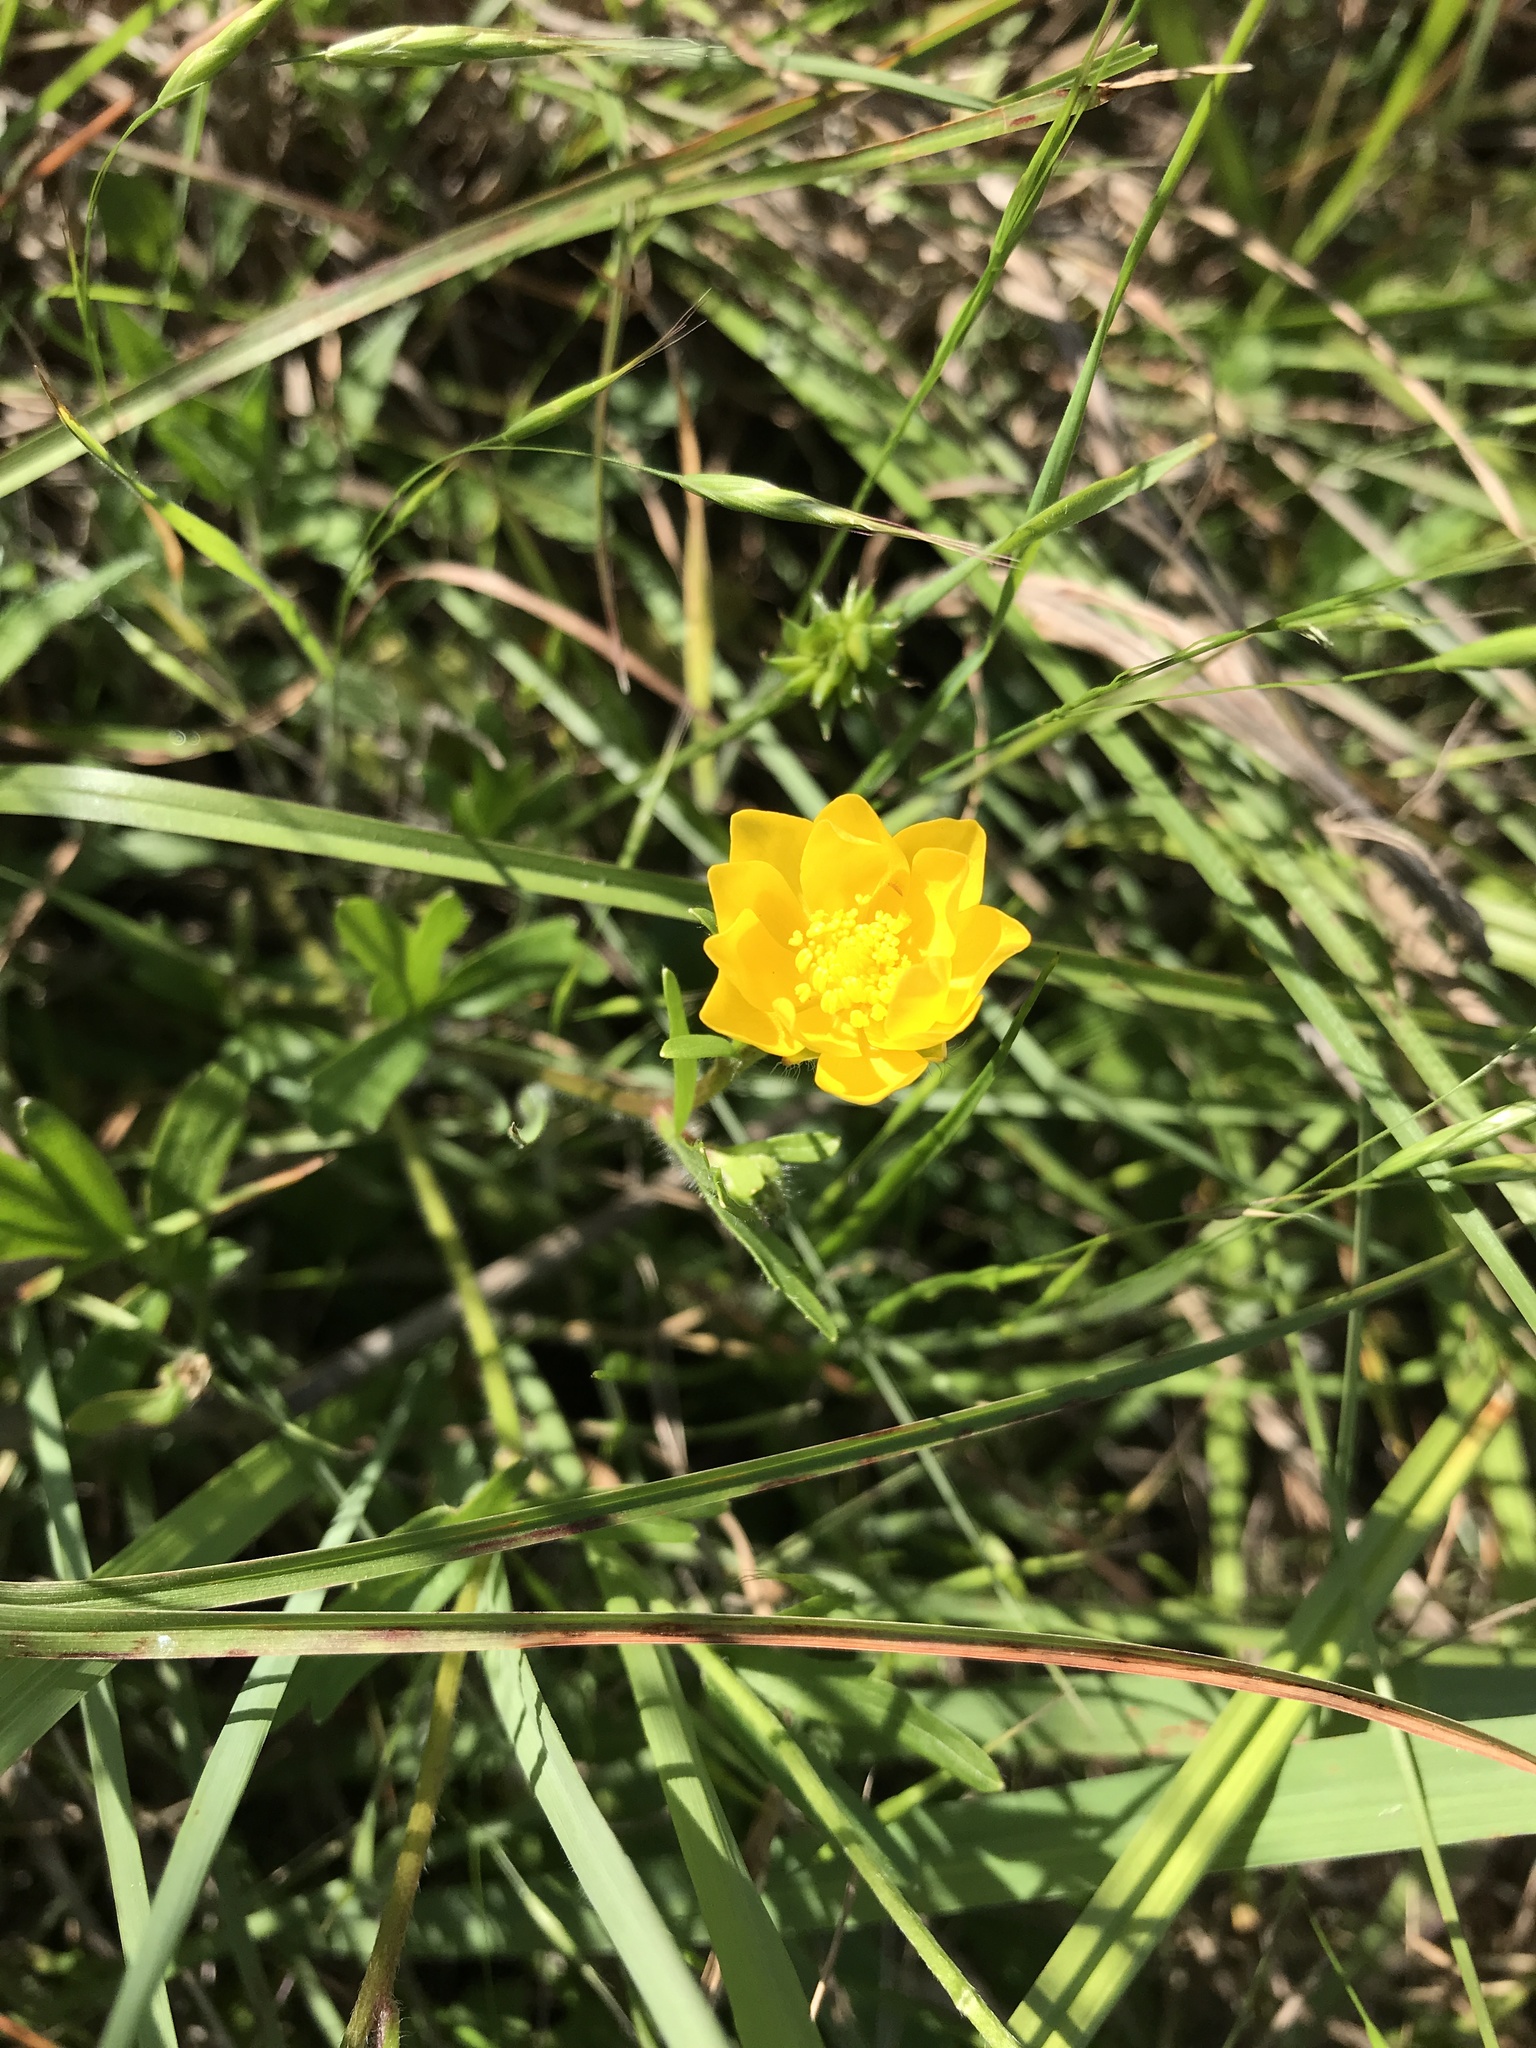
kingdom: Plantae
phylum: Tracheophyta
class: Magnoliopsida
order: Ranunculales
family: Ranunculaceae
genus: Ranunculus
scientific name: Ranunculus macranthus
